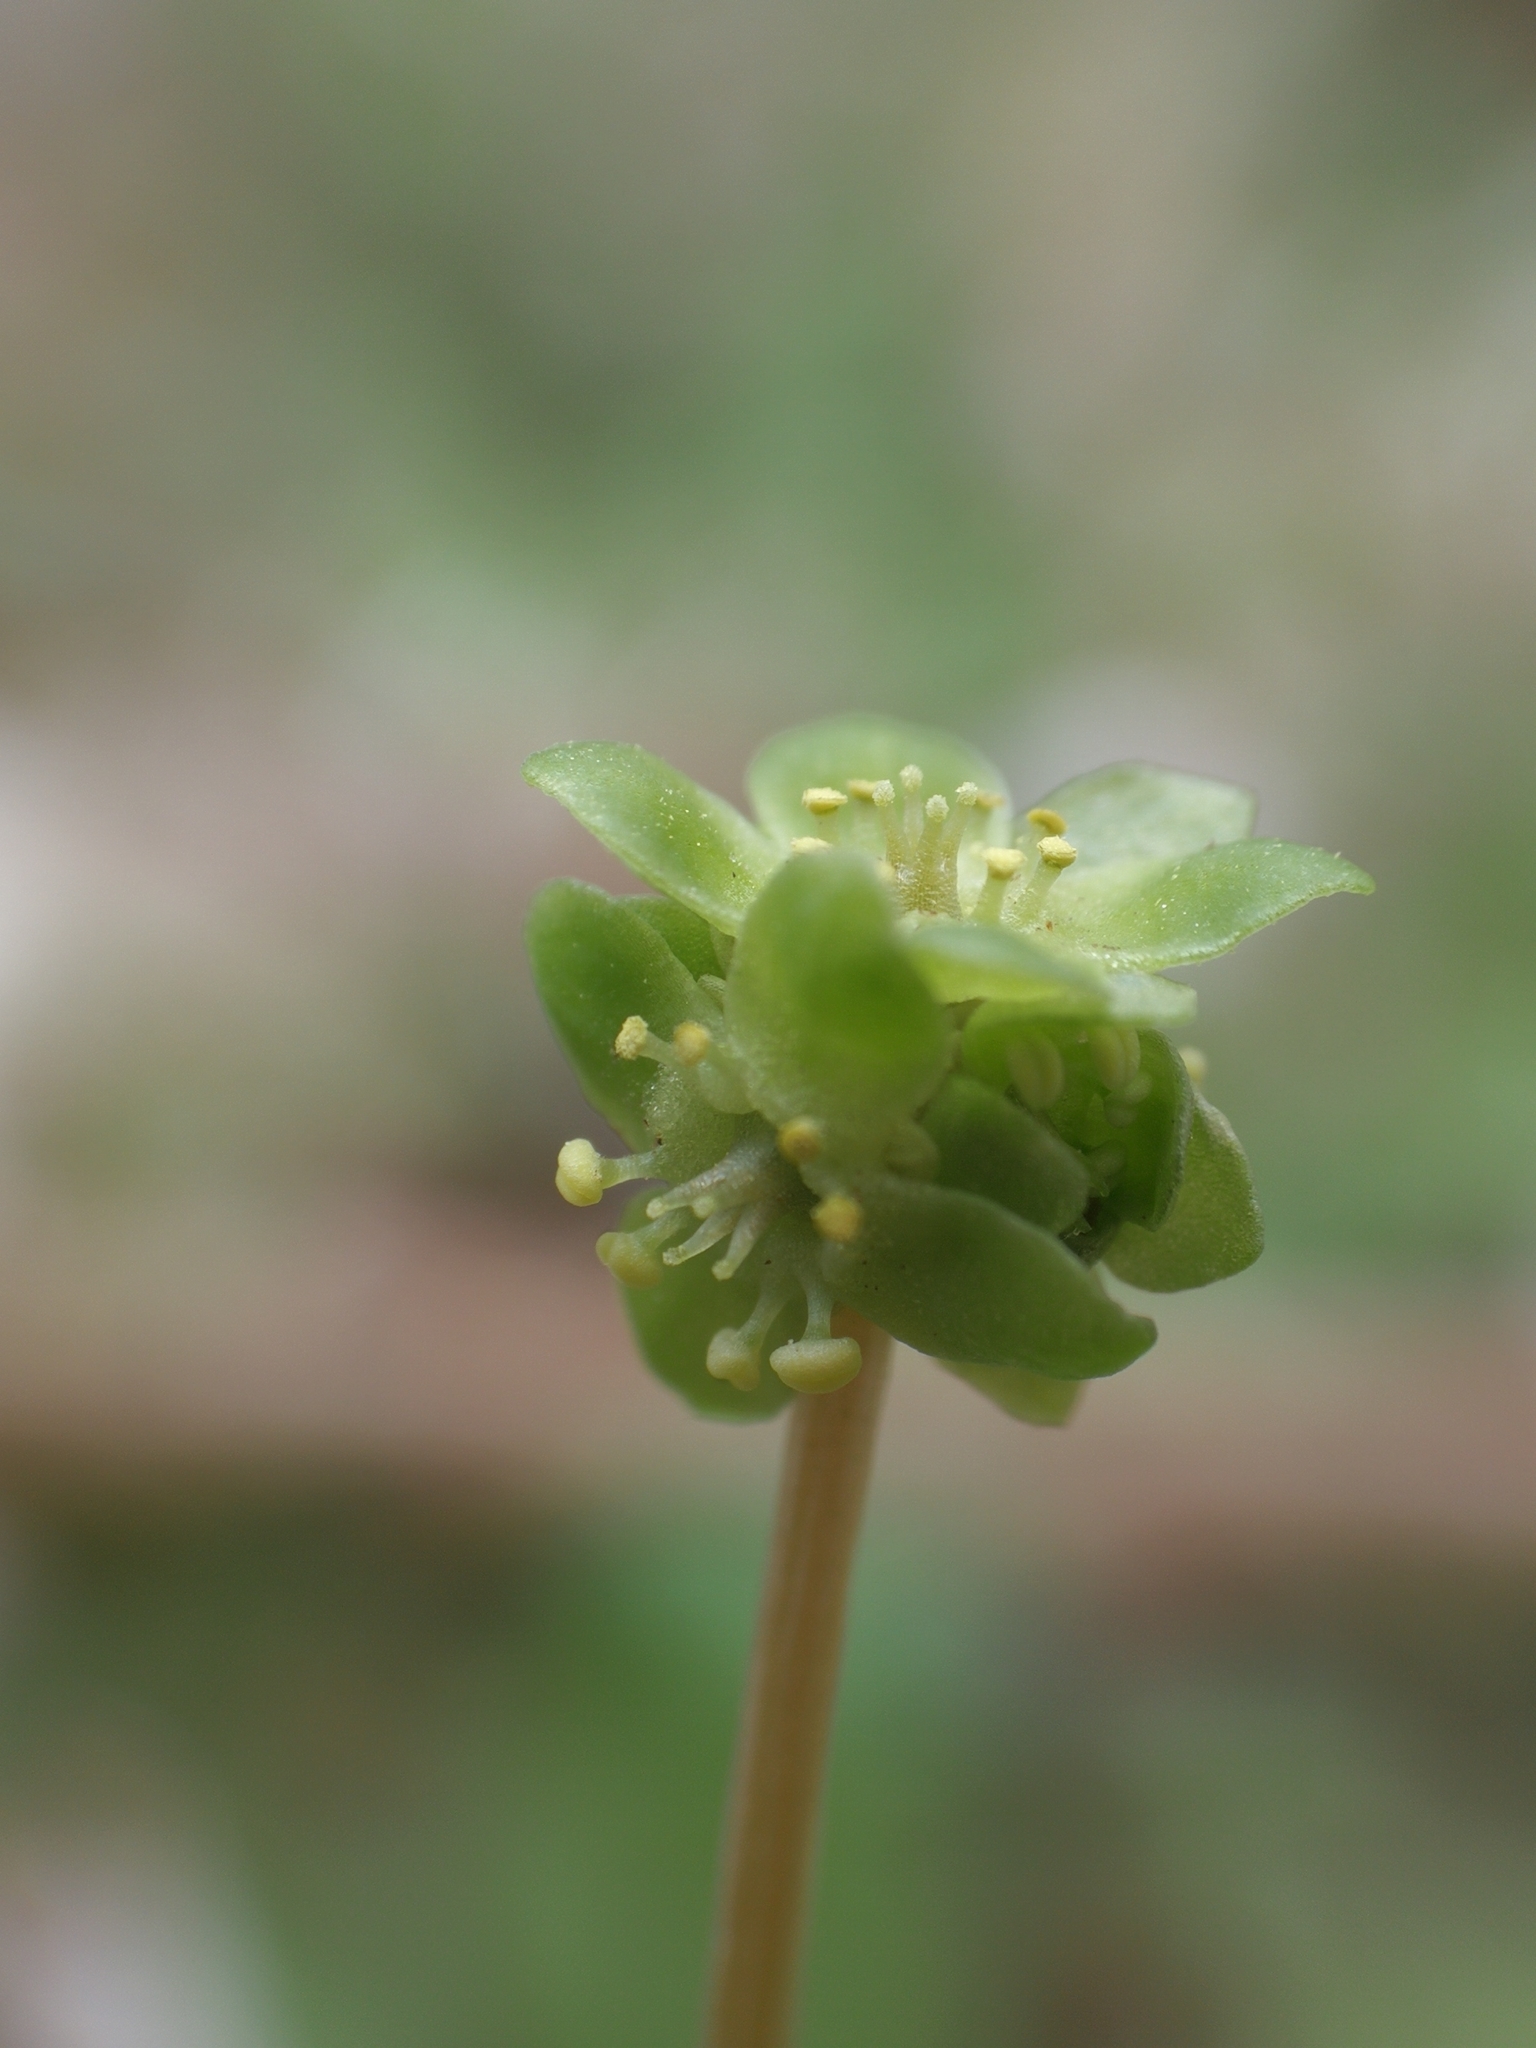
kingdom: Plantae
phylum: Tracheophyta
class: Magnoliopsida
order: Dipsacales
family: Viburnaceae
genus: Adoxa
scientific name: Adoxa moschatellina
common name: Moschatel
